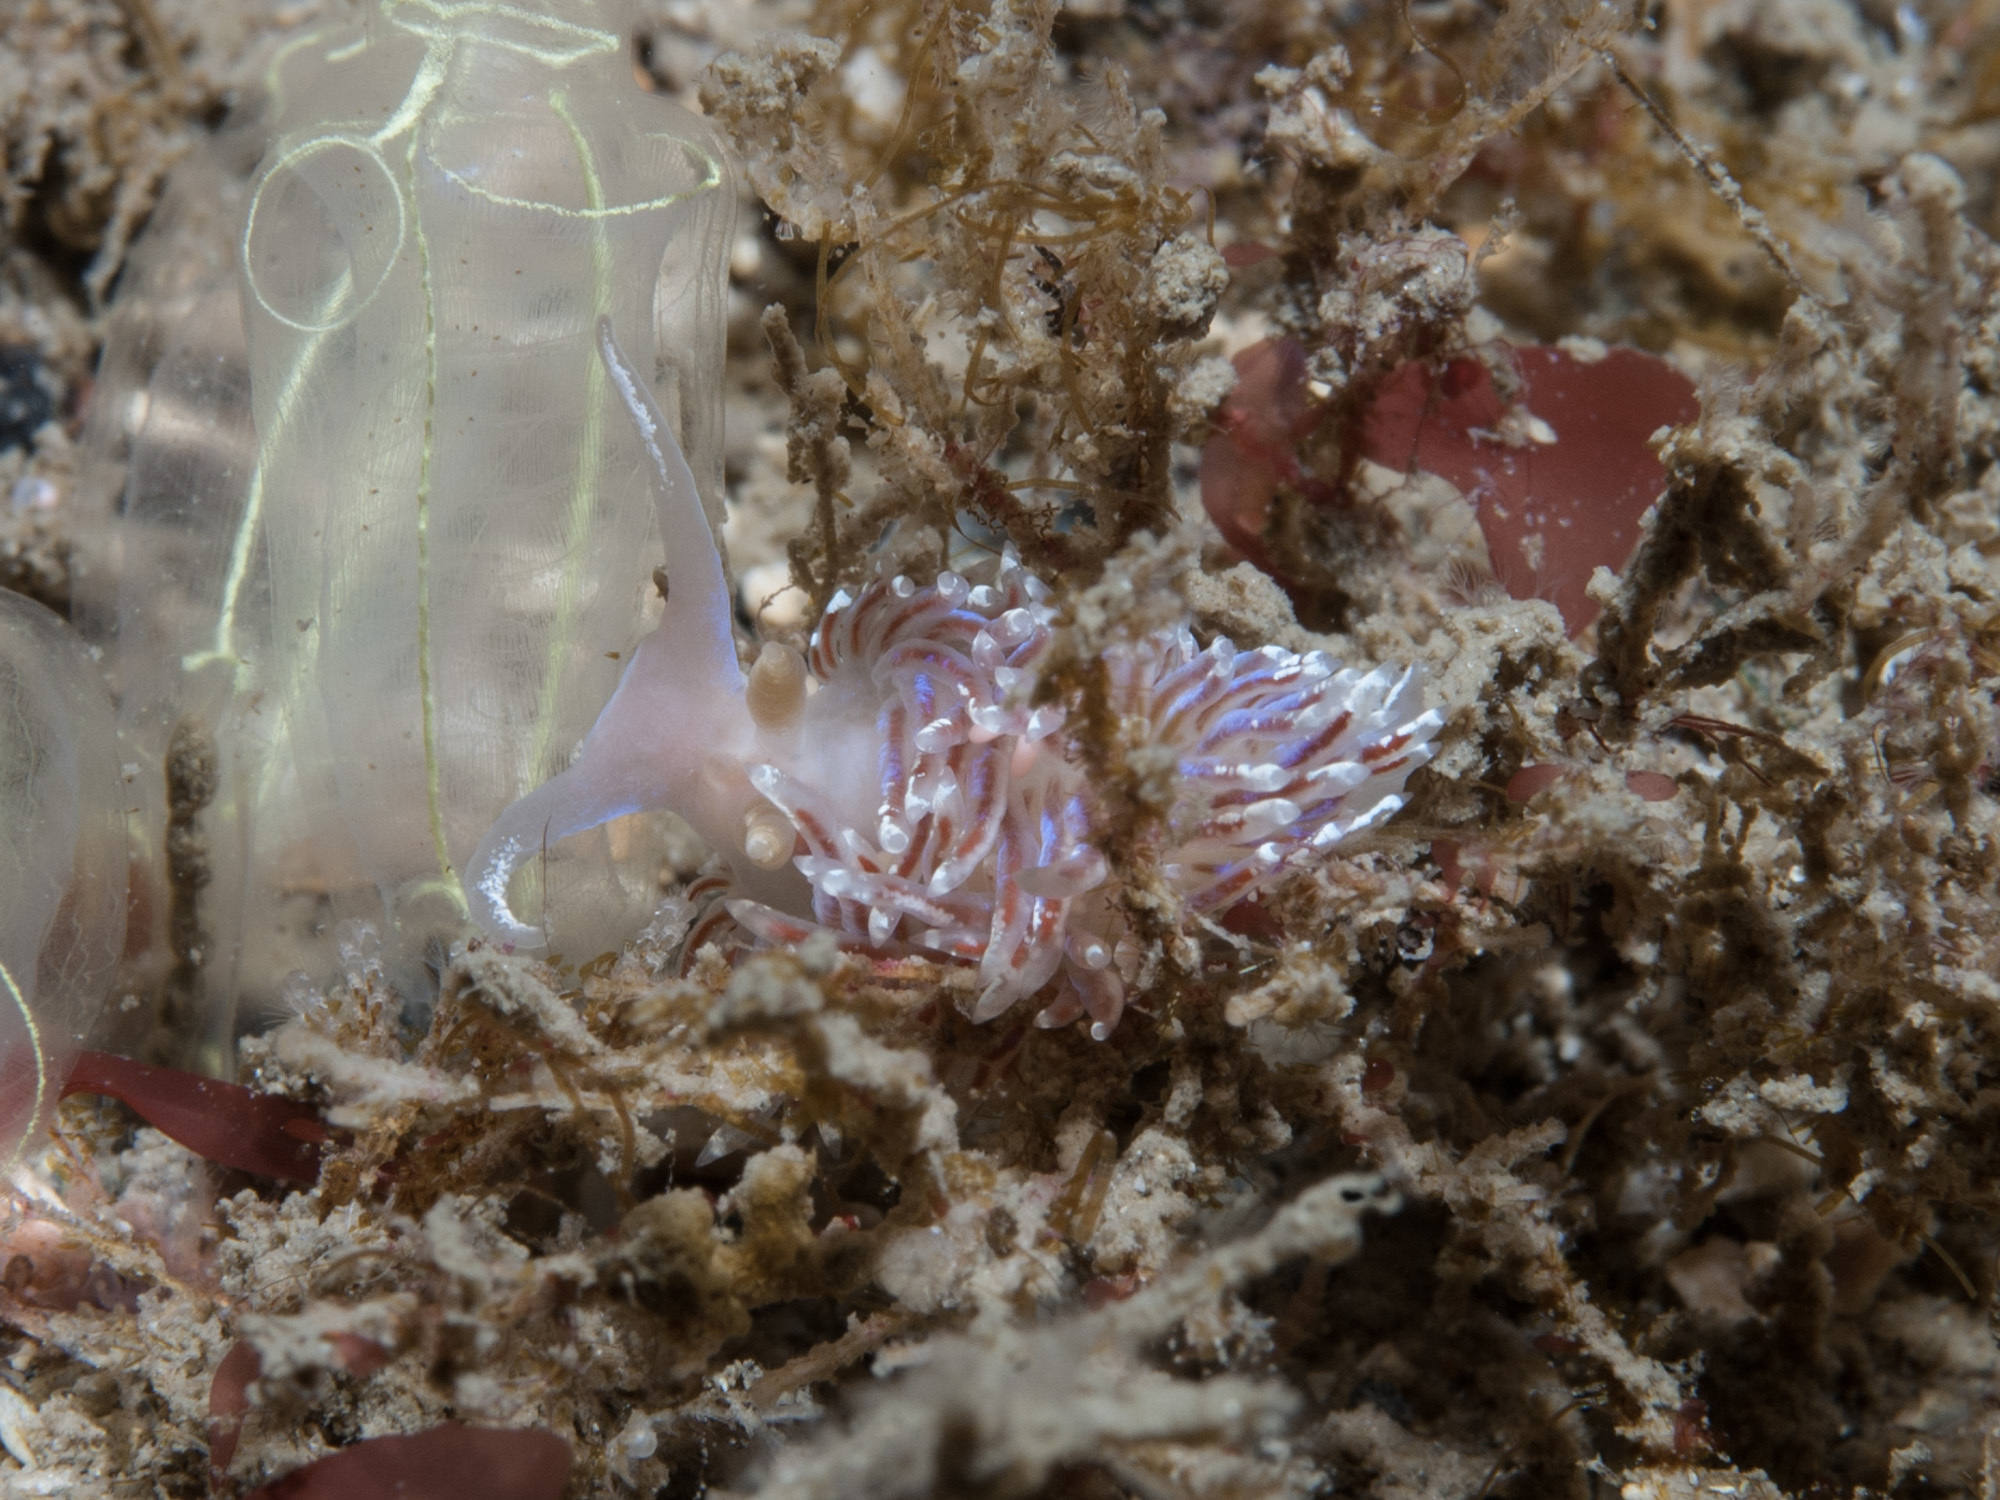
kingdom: Animalia
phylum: Mollusca
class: Gastropoda
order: Nudibranchia
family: Facelinidae
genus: Facelina
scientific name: Facelina auriculata
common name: Slender facelina
